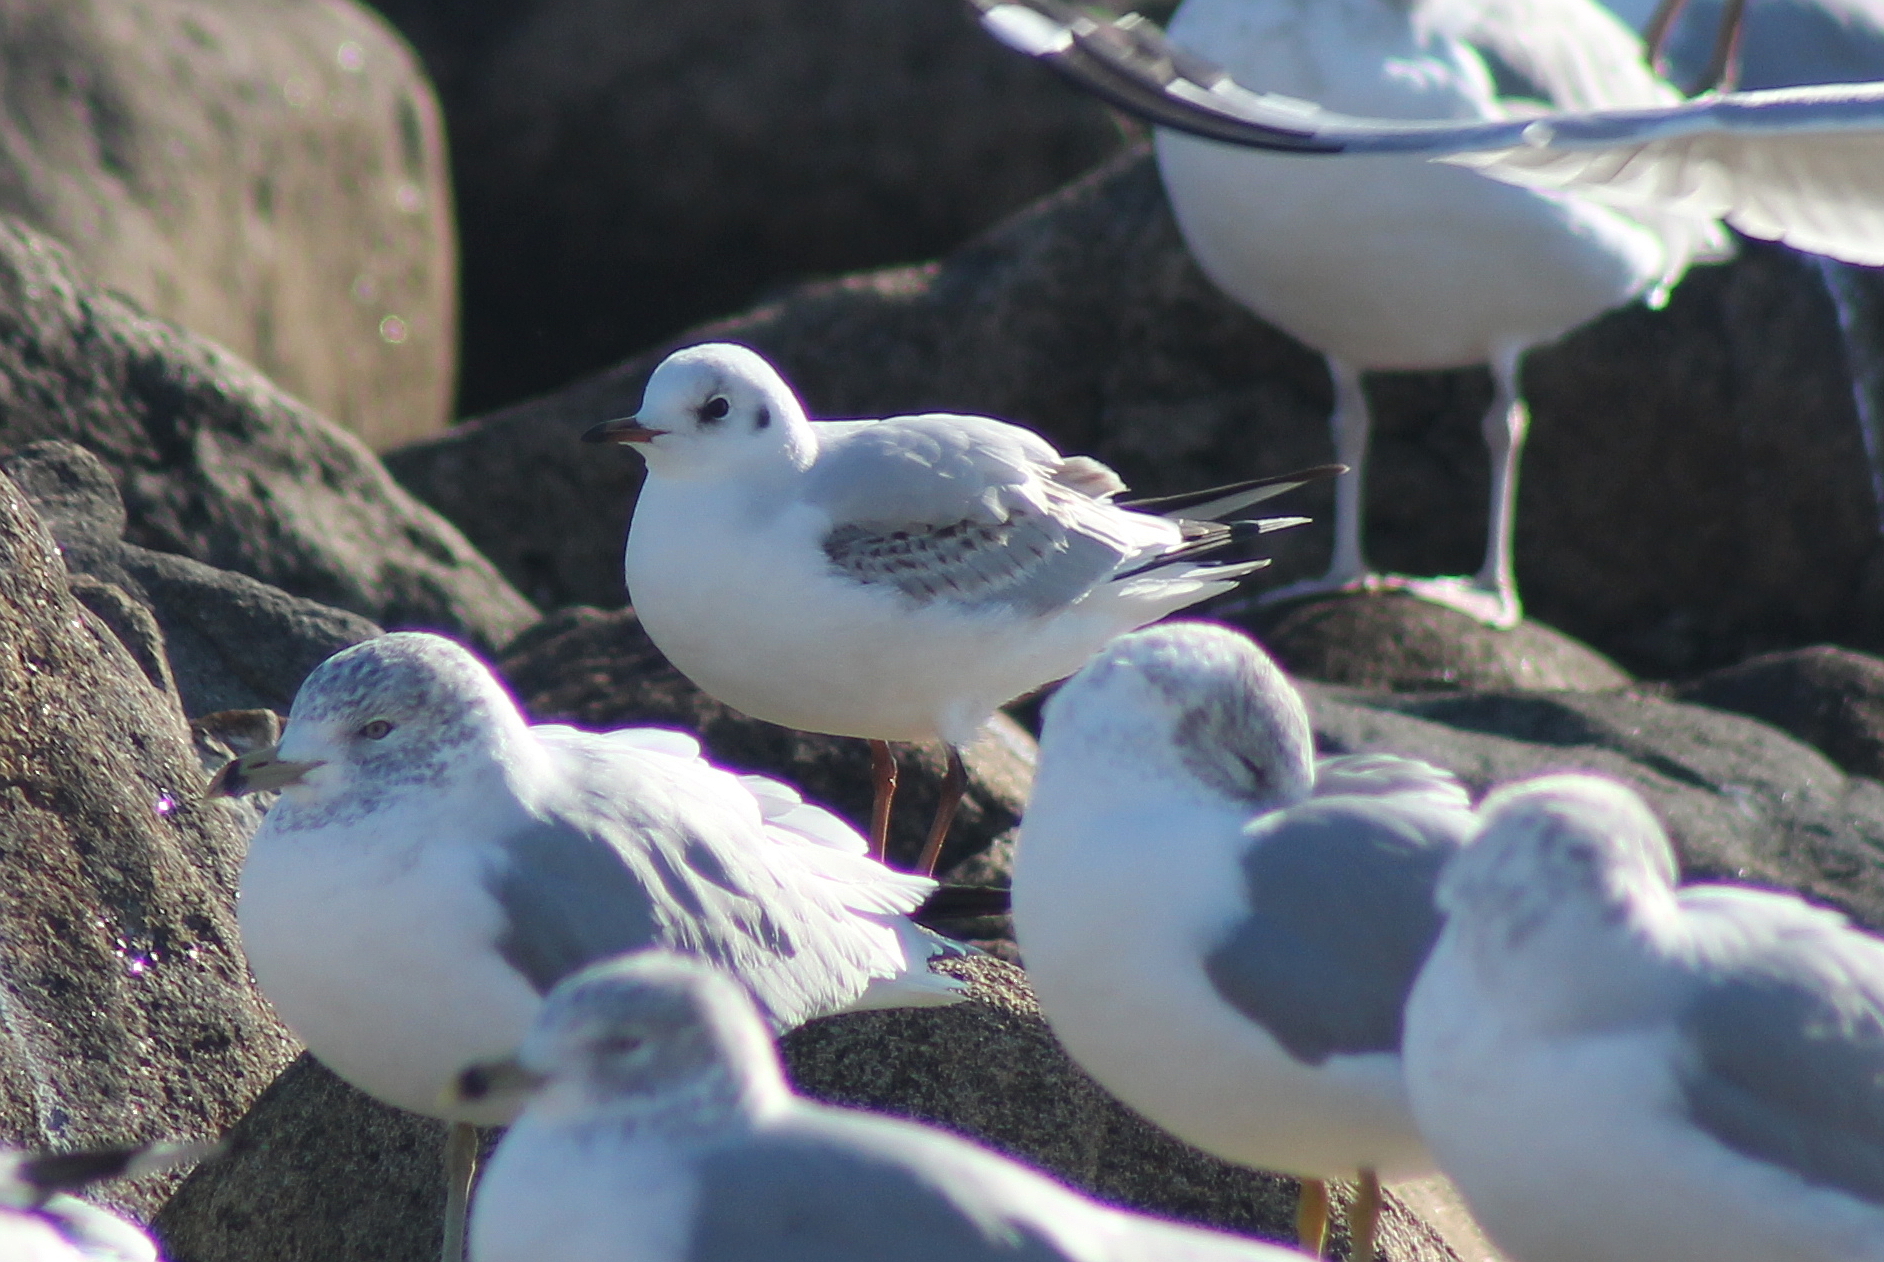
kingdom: Animalia
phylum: Chordata
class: Aves
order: Charadriiformes
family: Laridae
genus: Chroicocephalus
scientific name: Chroicocephalus ridibundus
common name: Black-headed gull
